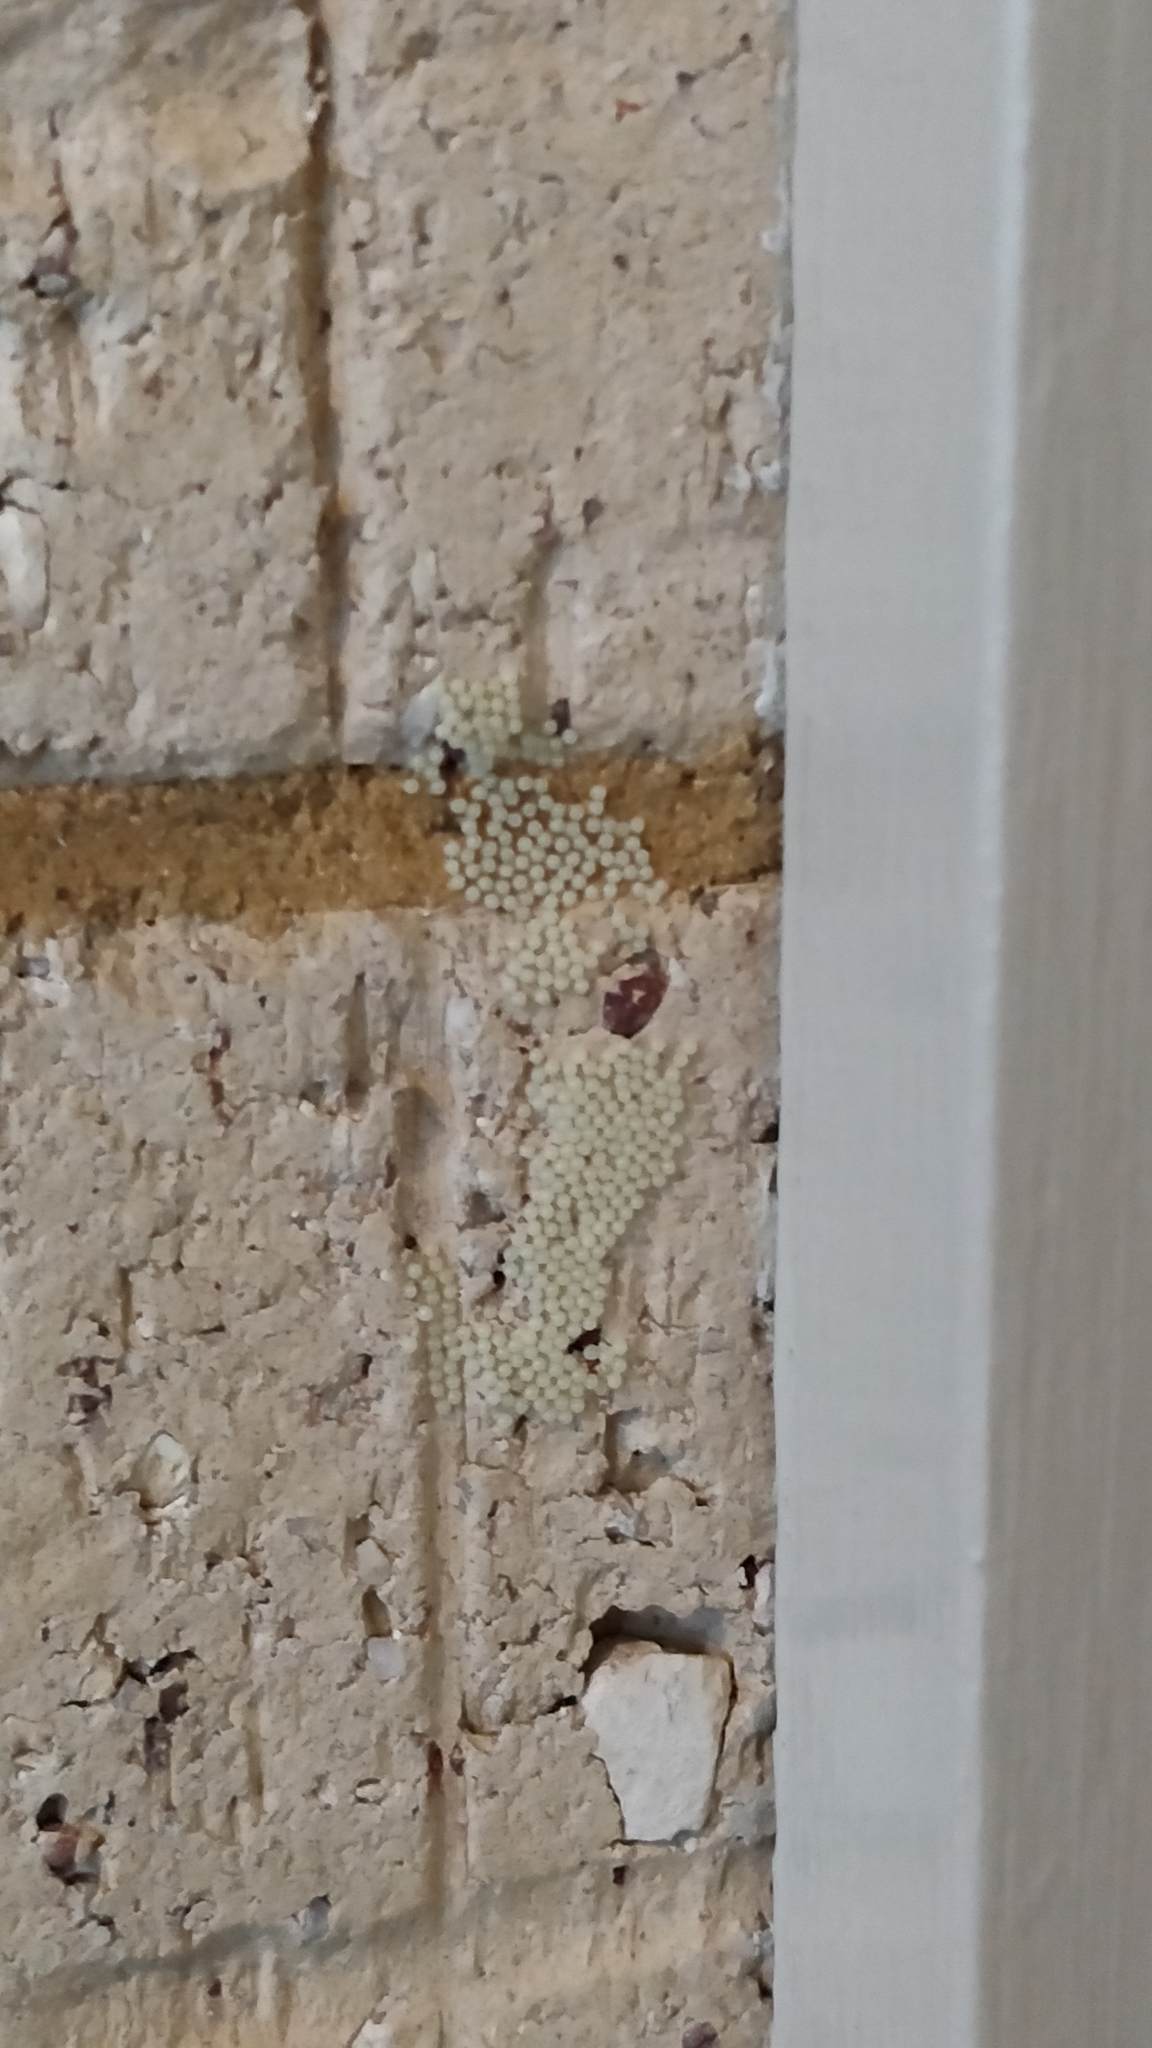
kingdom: Animalia
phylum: Arthropoda
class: Insecta
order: Lepidoptera
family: Erebidae
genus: Ardices
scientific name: Ardices glatignyi
